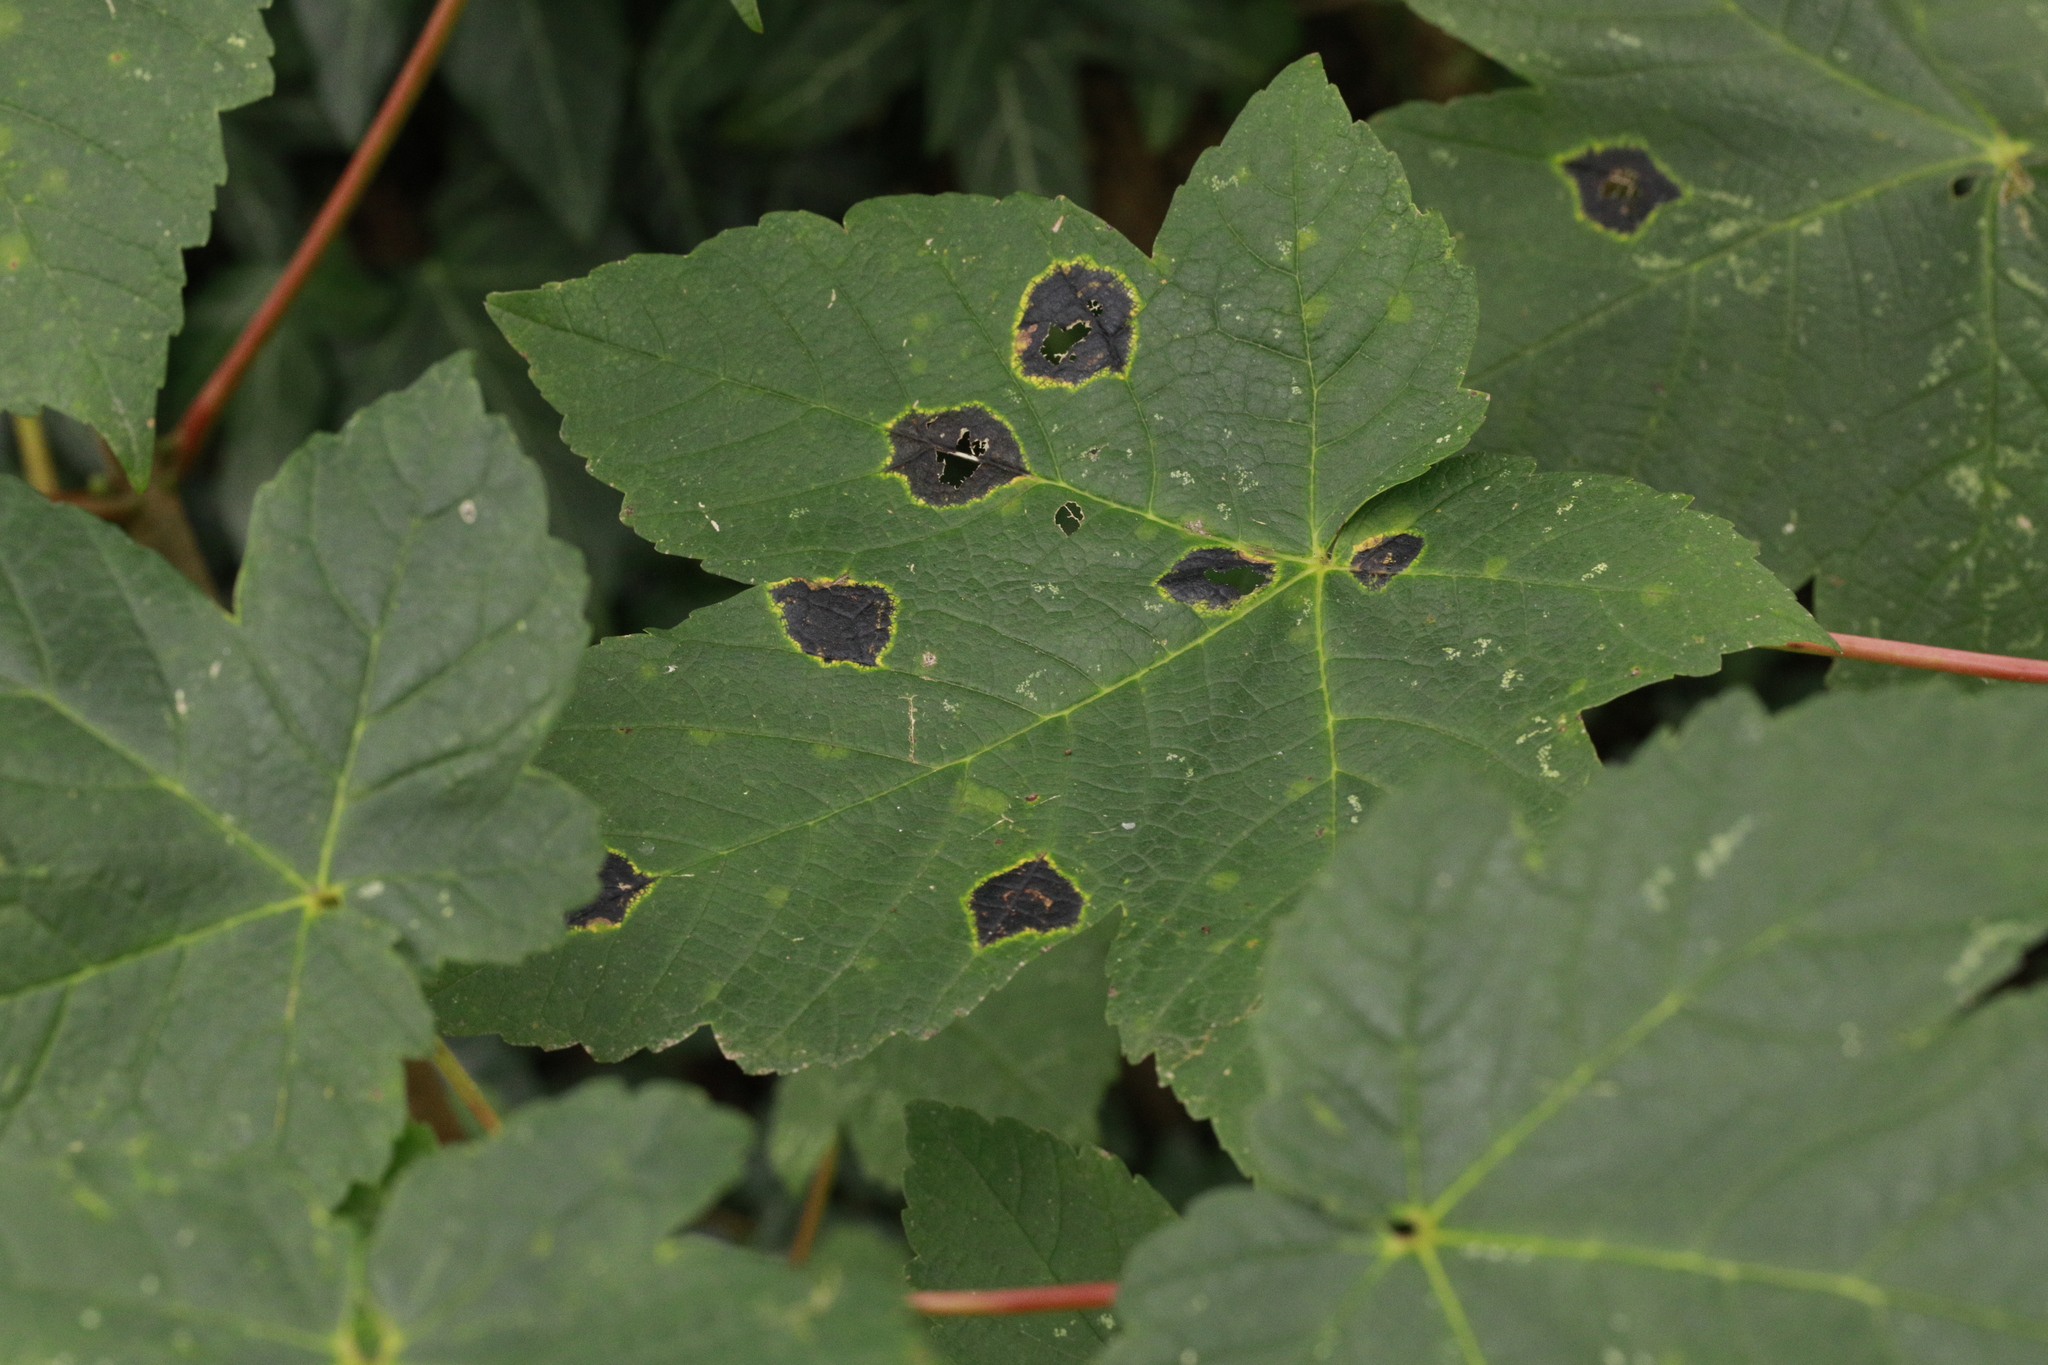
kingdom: Fungi
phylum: Ascomycota
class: Leotiomycetes
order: Rhytismatales
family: Rhytismataceae
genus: Rhytisma
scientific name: Rhytisma acerinum
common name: European tar spot
